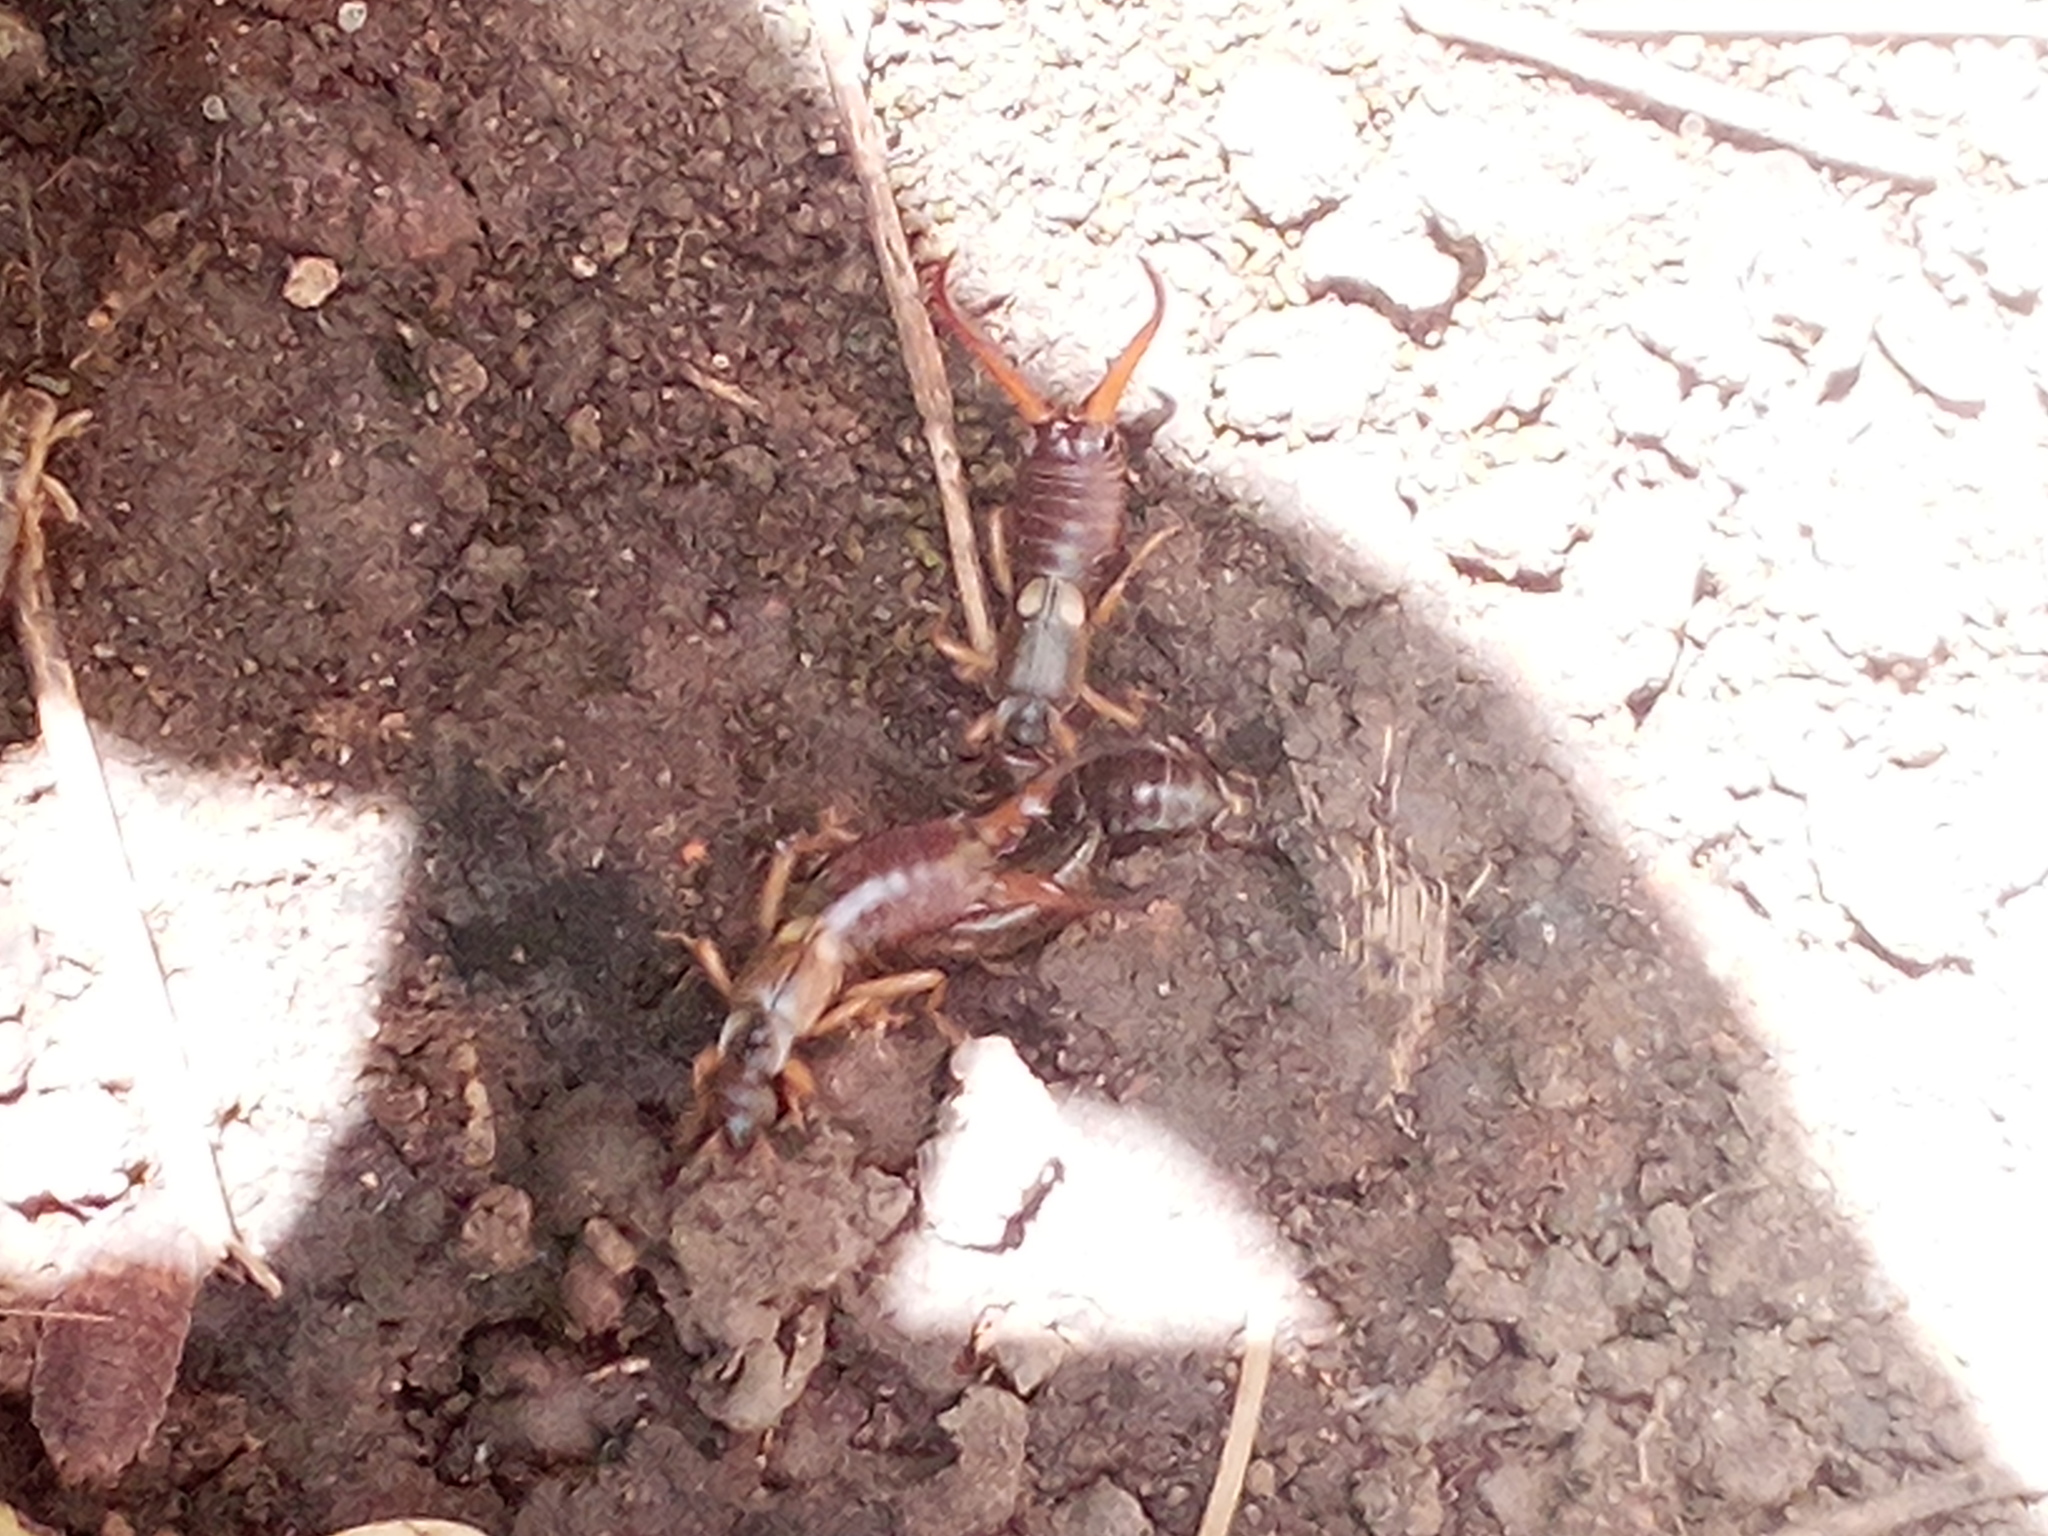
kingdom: Animalia
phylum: Arthropoda
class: Insecta
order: Dermaptera
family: Forficulidae
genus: Forficula
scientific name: Forficula
